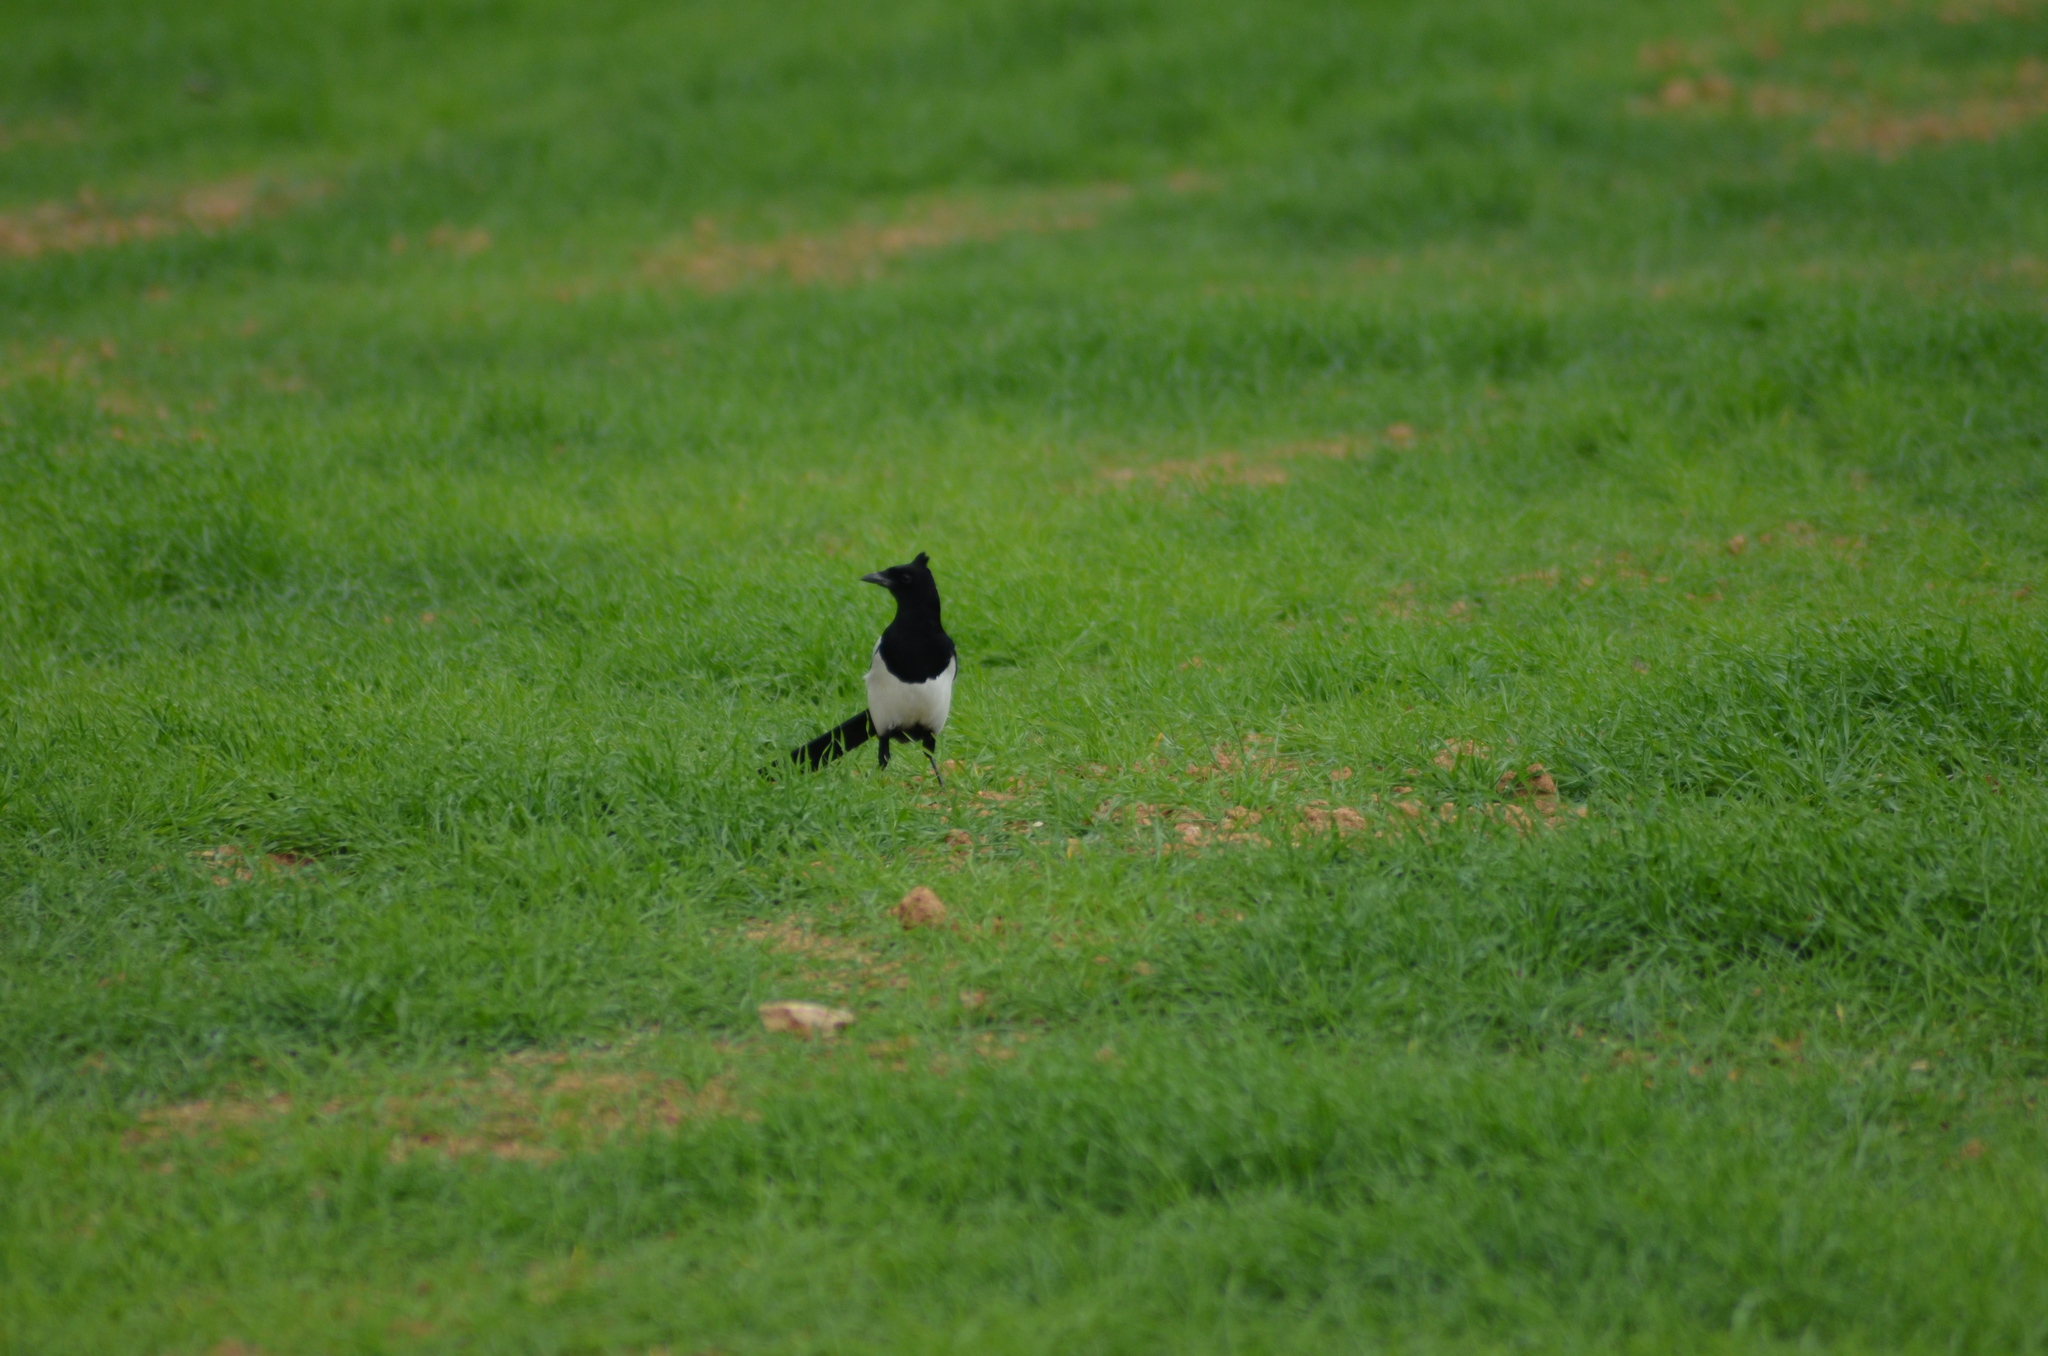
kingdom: Animalia
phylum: Chordata
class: Aves
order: Passeriformes
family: Corvidae
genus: Pica
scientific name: Pica pica
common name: Eurasian magpie
